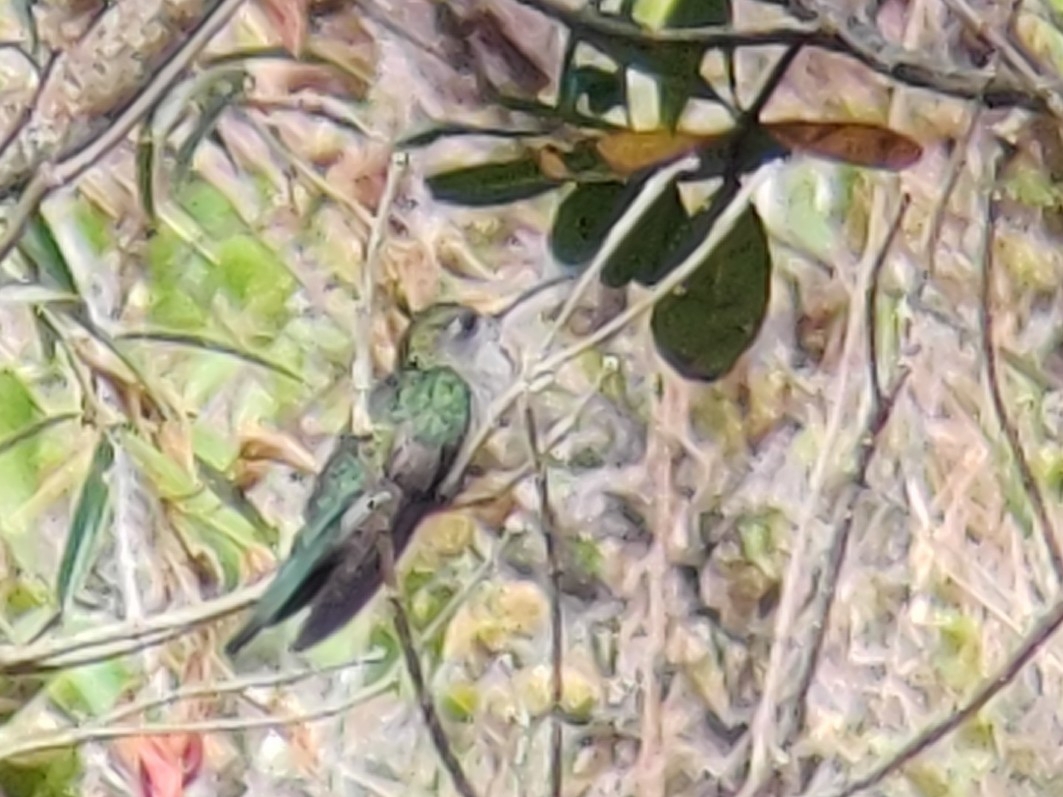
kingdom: Animalia
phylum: Chordata
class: Aves
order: Apodiformes
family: Trochilidae
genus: Campylopterus
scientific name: Campylopterus diamantinensis
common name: Diamantina sabrewing
